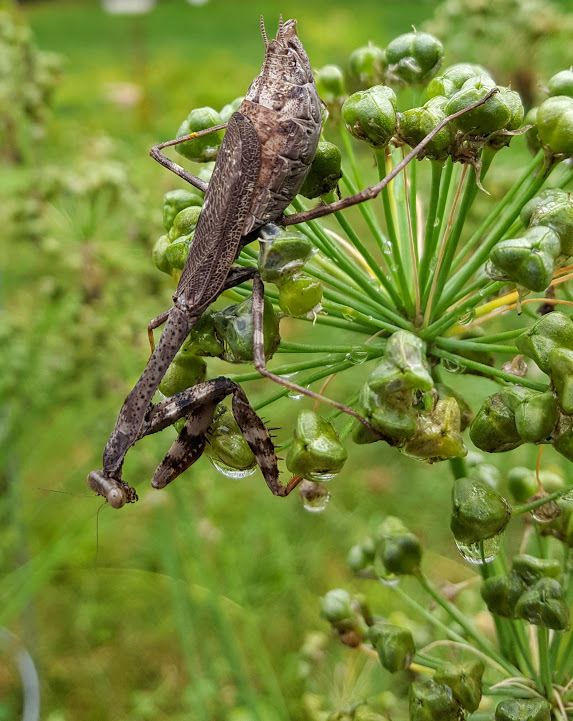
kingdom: Animalia
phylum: Arthropoda
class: Insecta
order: Mantodea
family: Mantidae
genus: Stagmomantis
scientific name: Stagmomantis carolina
